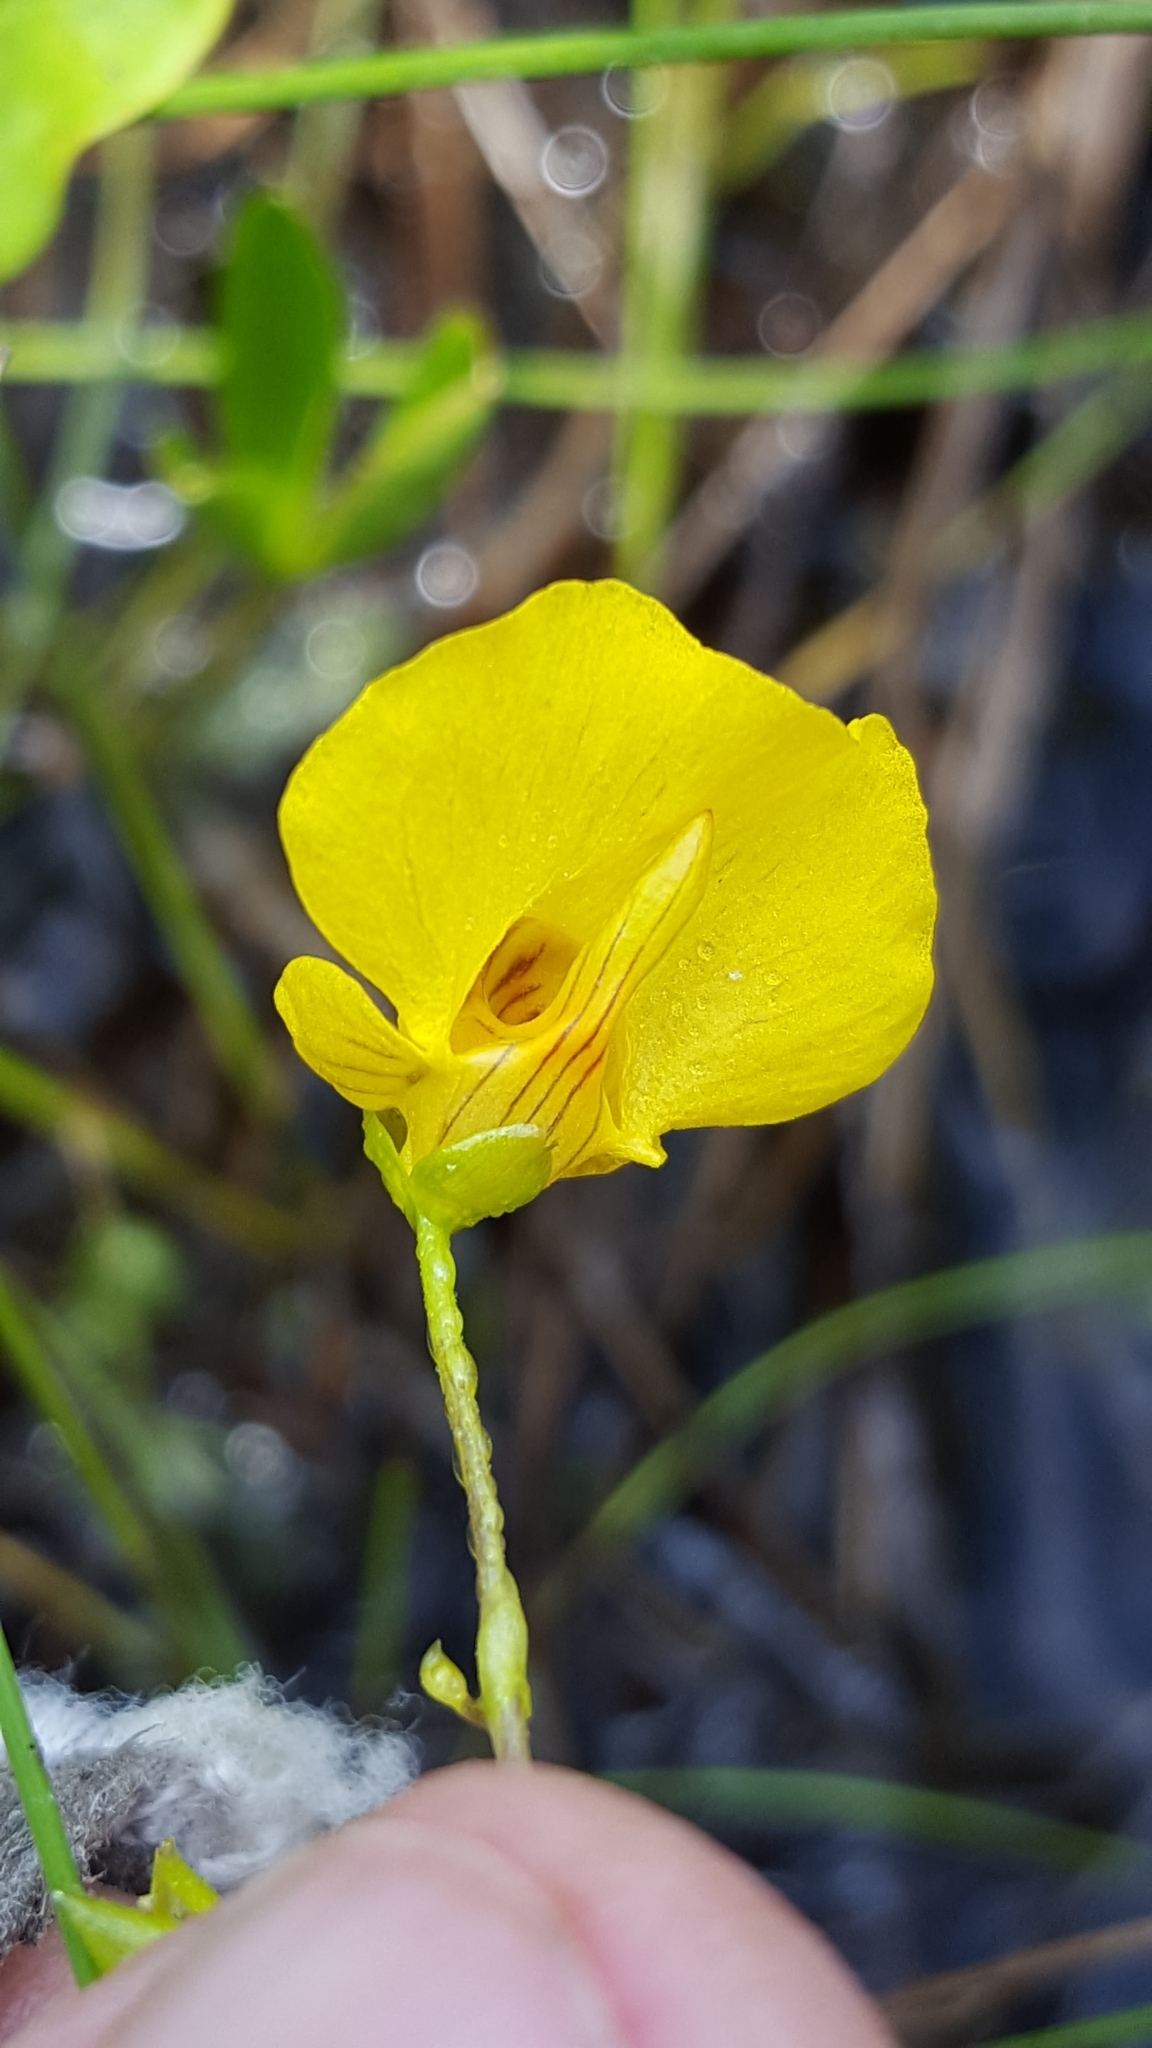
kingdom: Plantae
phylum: Tracheophyta
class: Magnoliopsida
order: Lamiales
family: Lentibulariaceae
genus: Utricularia
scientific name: Utricularia intermedia
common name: Intermediate bladderwort
